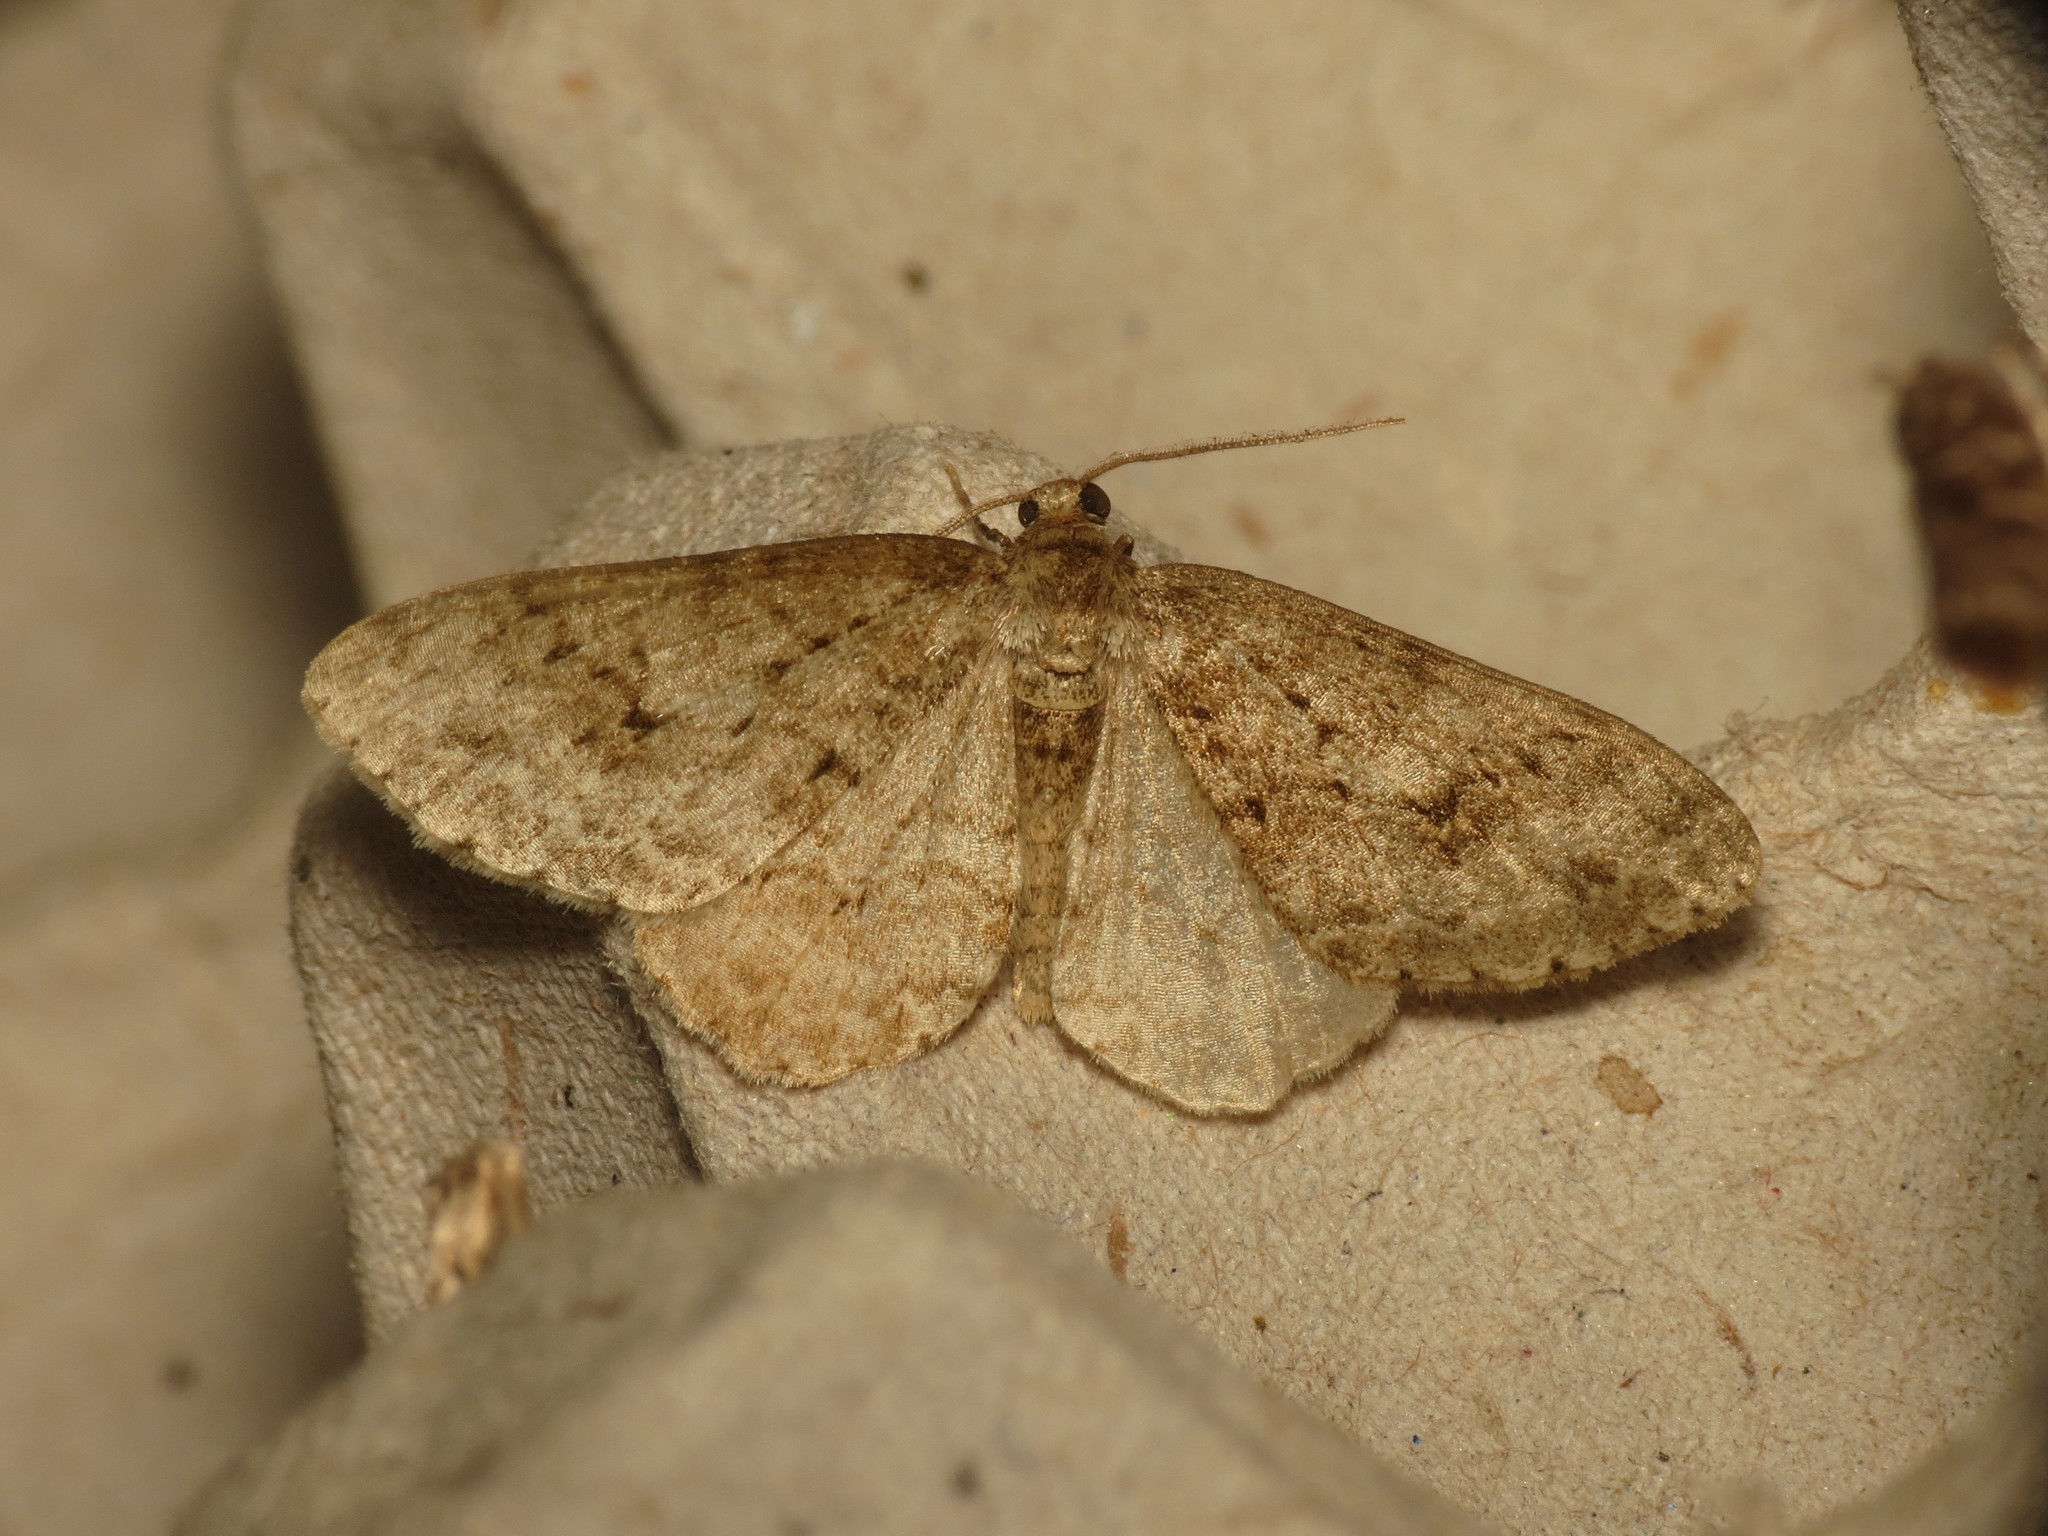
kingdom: Animalia
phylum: Arthropoda
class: Insecta
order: Lepidoptera
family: Geometridae
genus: Ectropis
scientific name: Ectropis crepuscularia
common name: Engrailed
